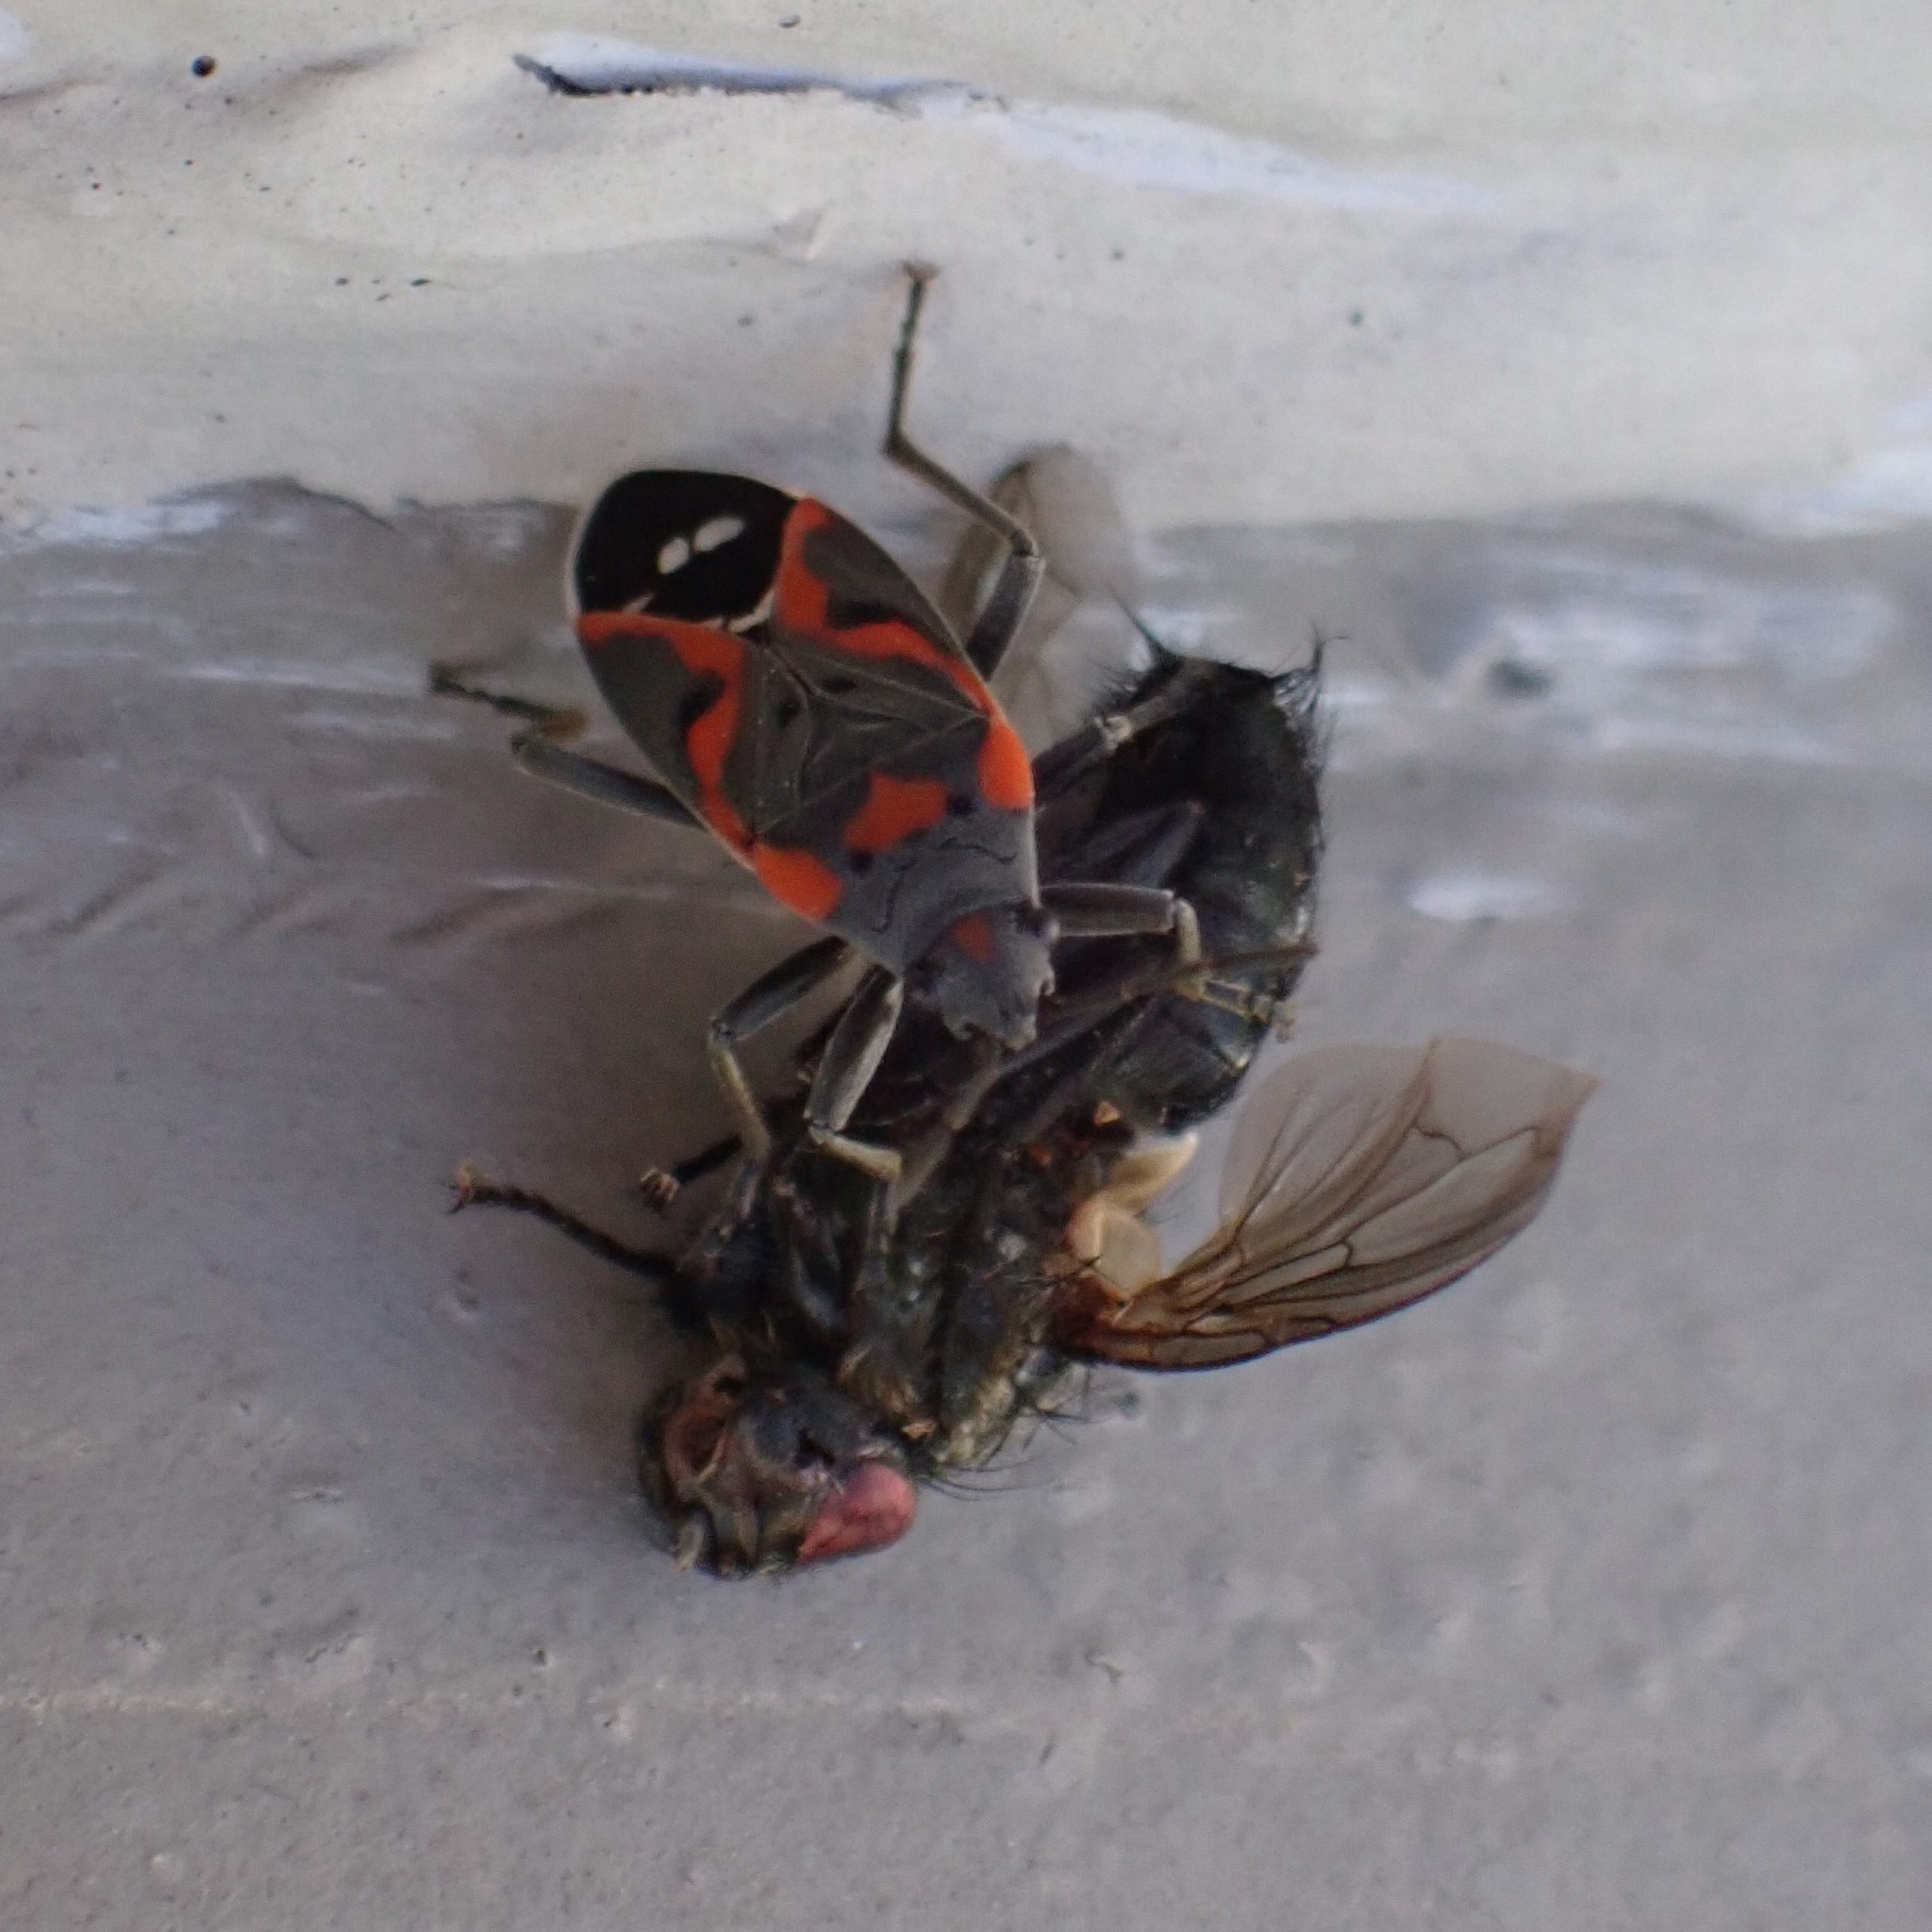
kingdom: Animalia
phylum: Arthropoda
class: Insecta
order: Hemiptera
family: Lygaeidae
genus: Lygaeus
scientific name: Lygaeus kalmii
